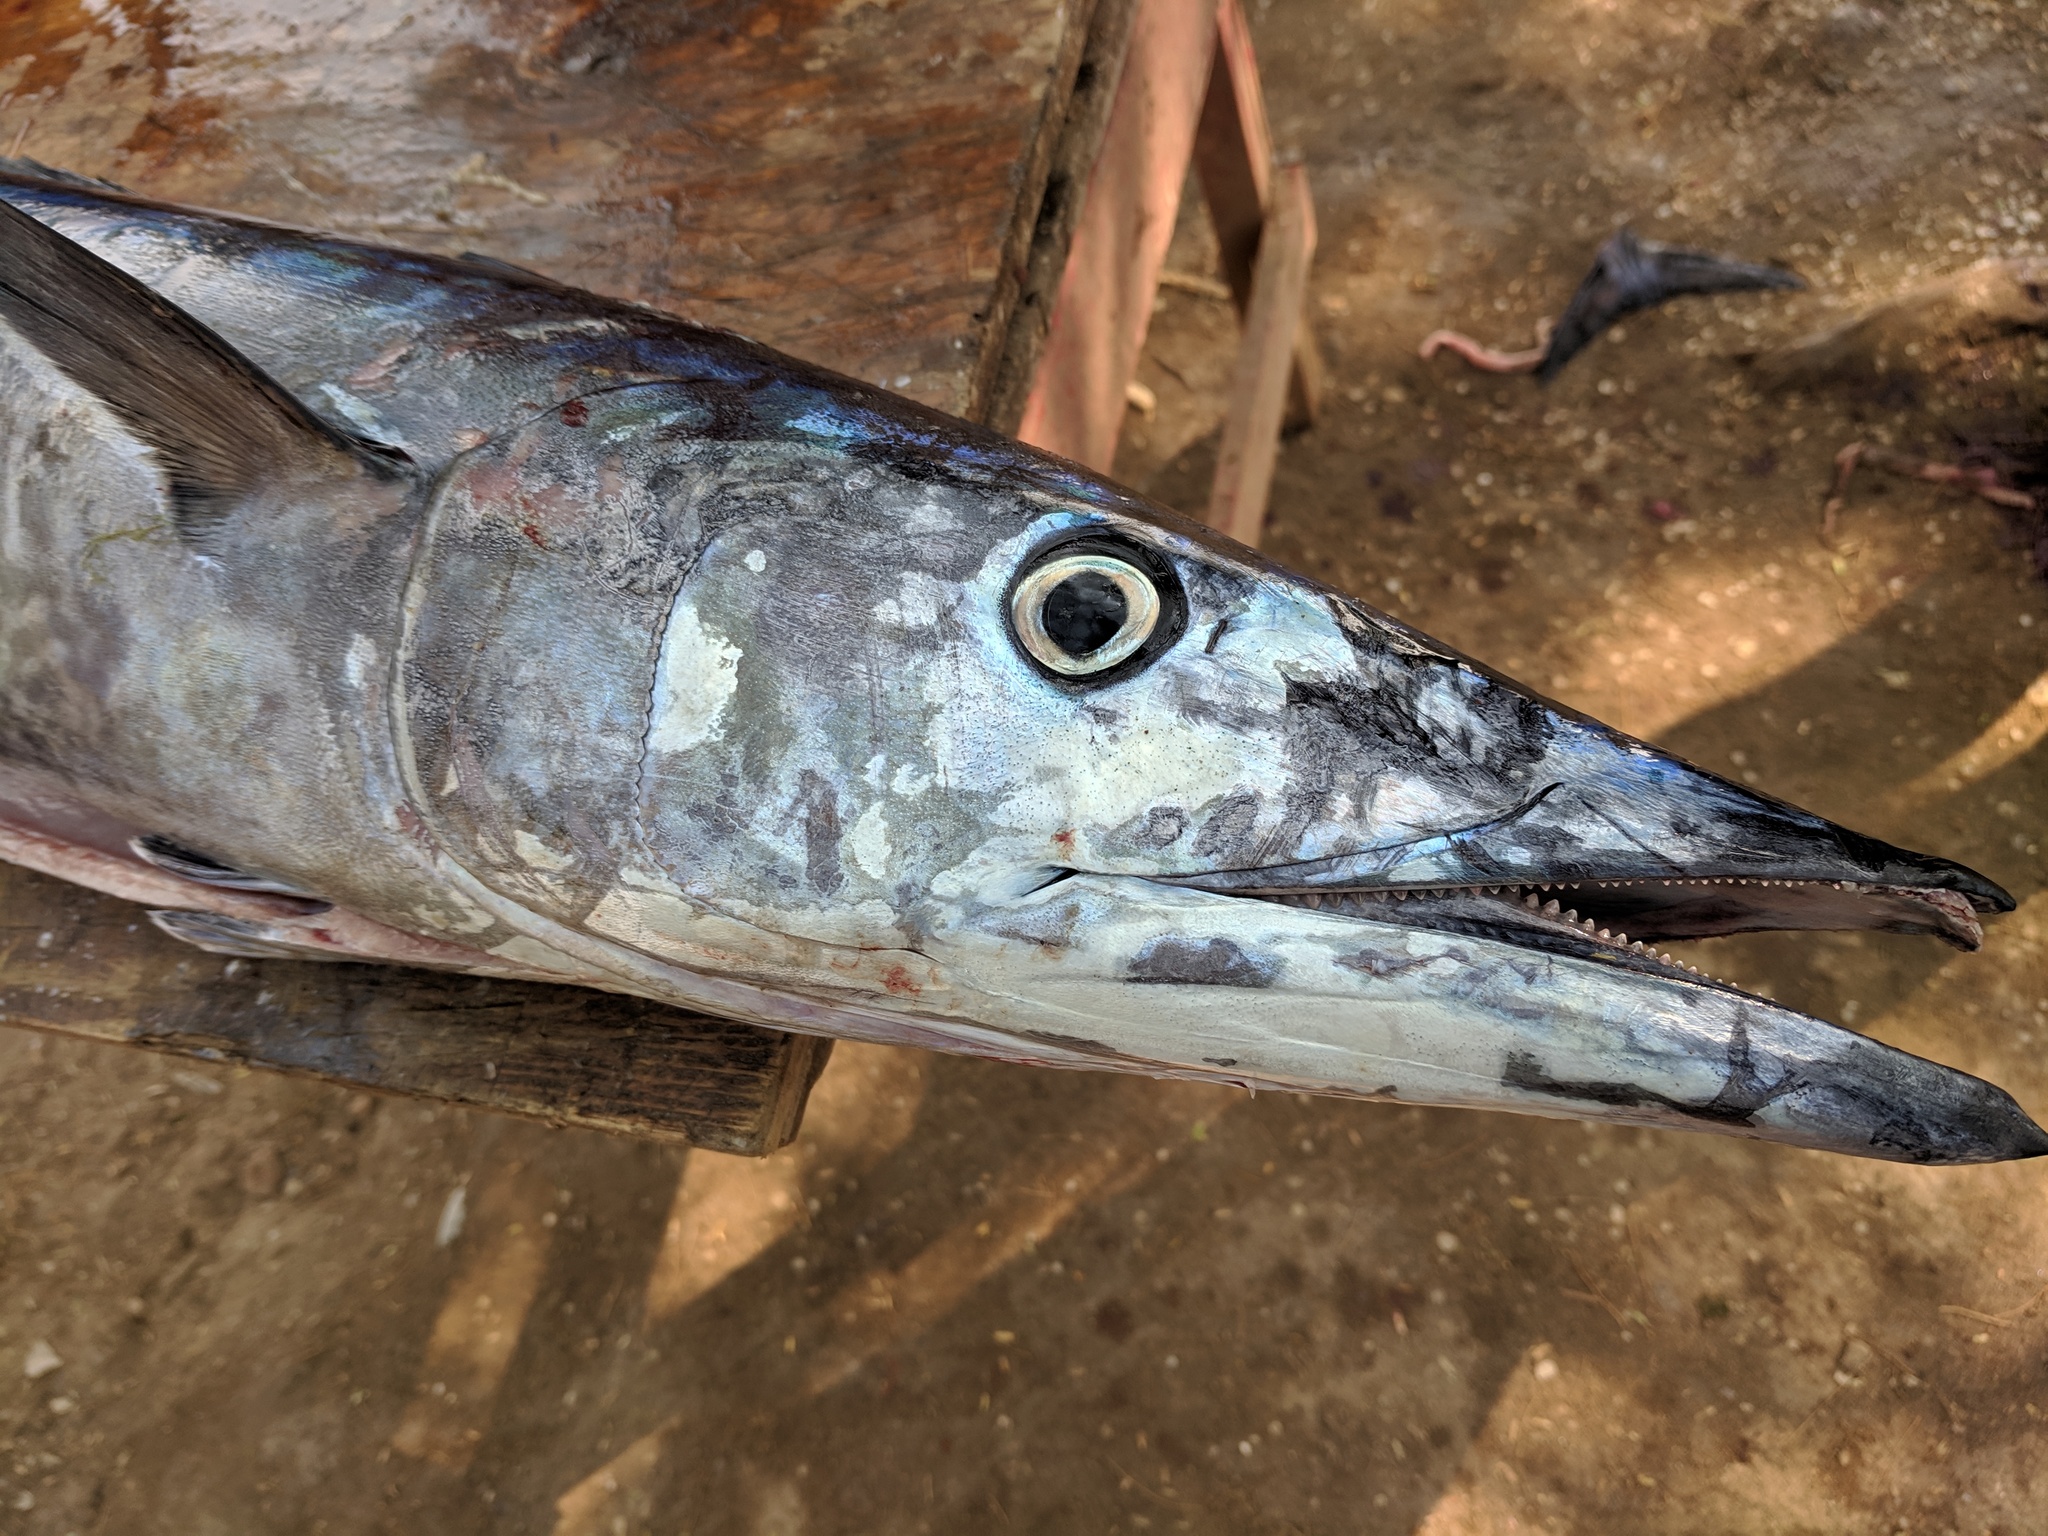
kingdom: Animalia
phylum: Chordata
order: Perciformes
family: Scombridae
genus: Acanthocybium
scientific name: Acanthocybium solandri
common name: Wahoo
